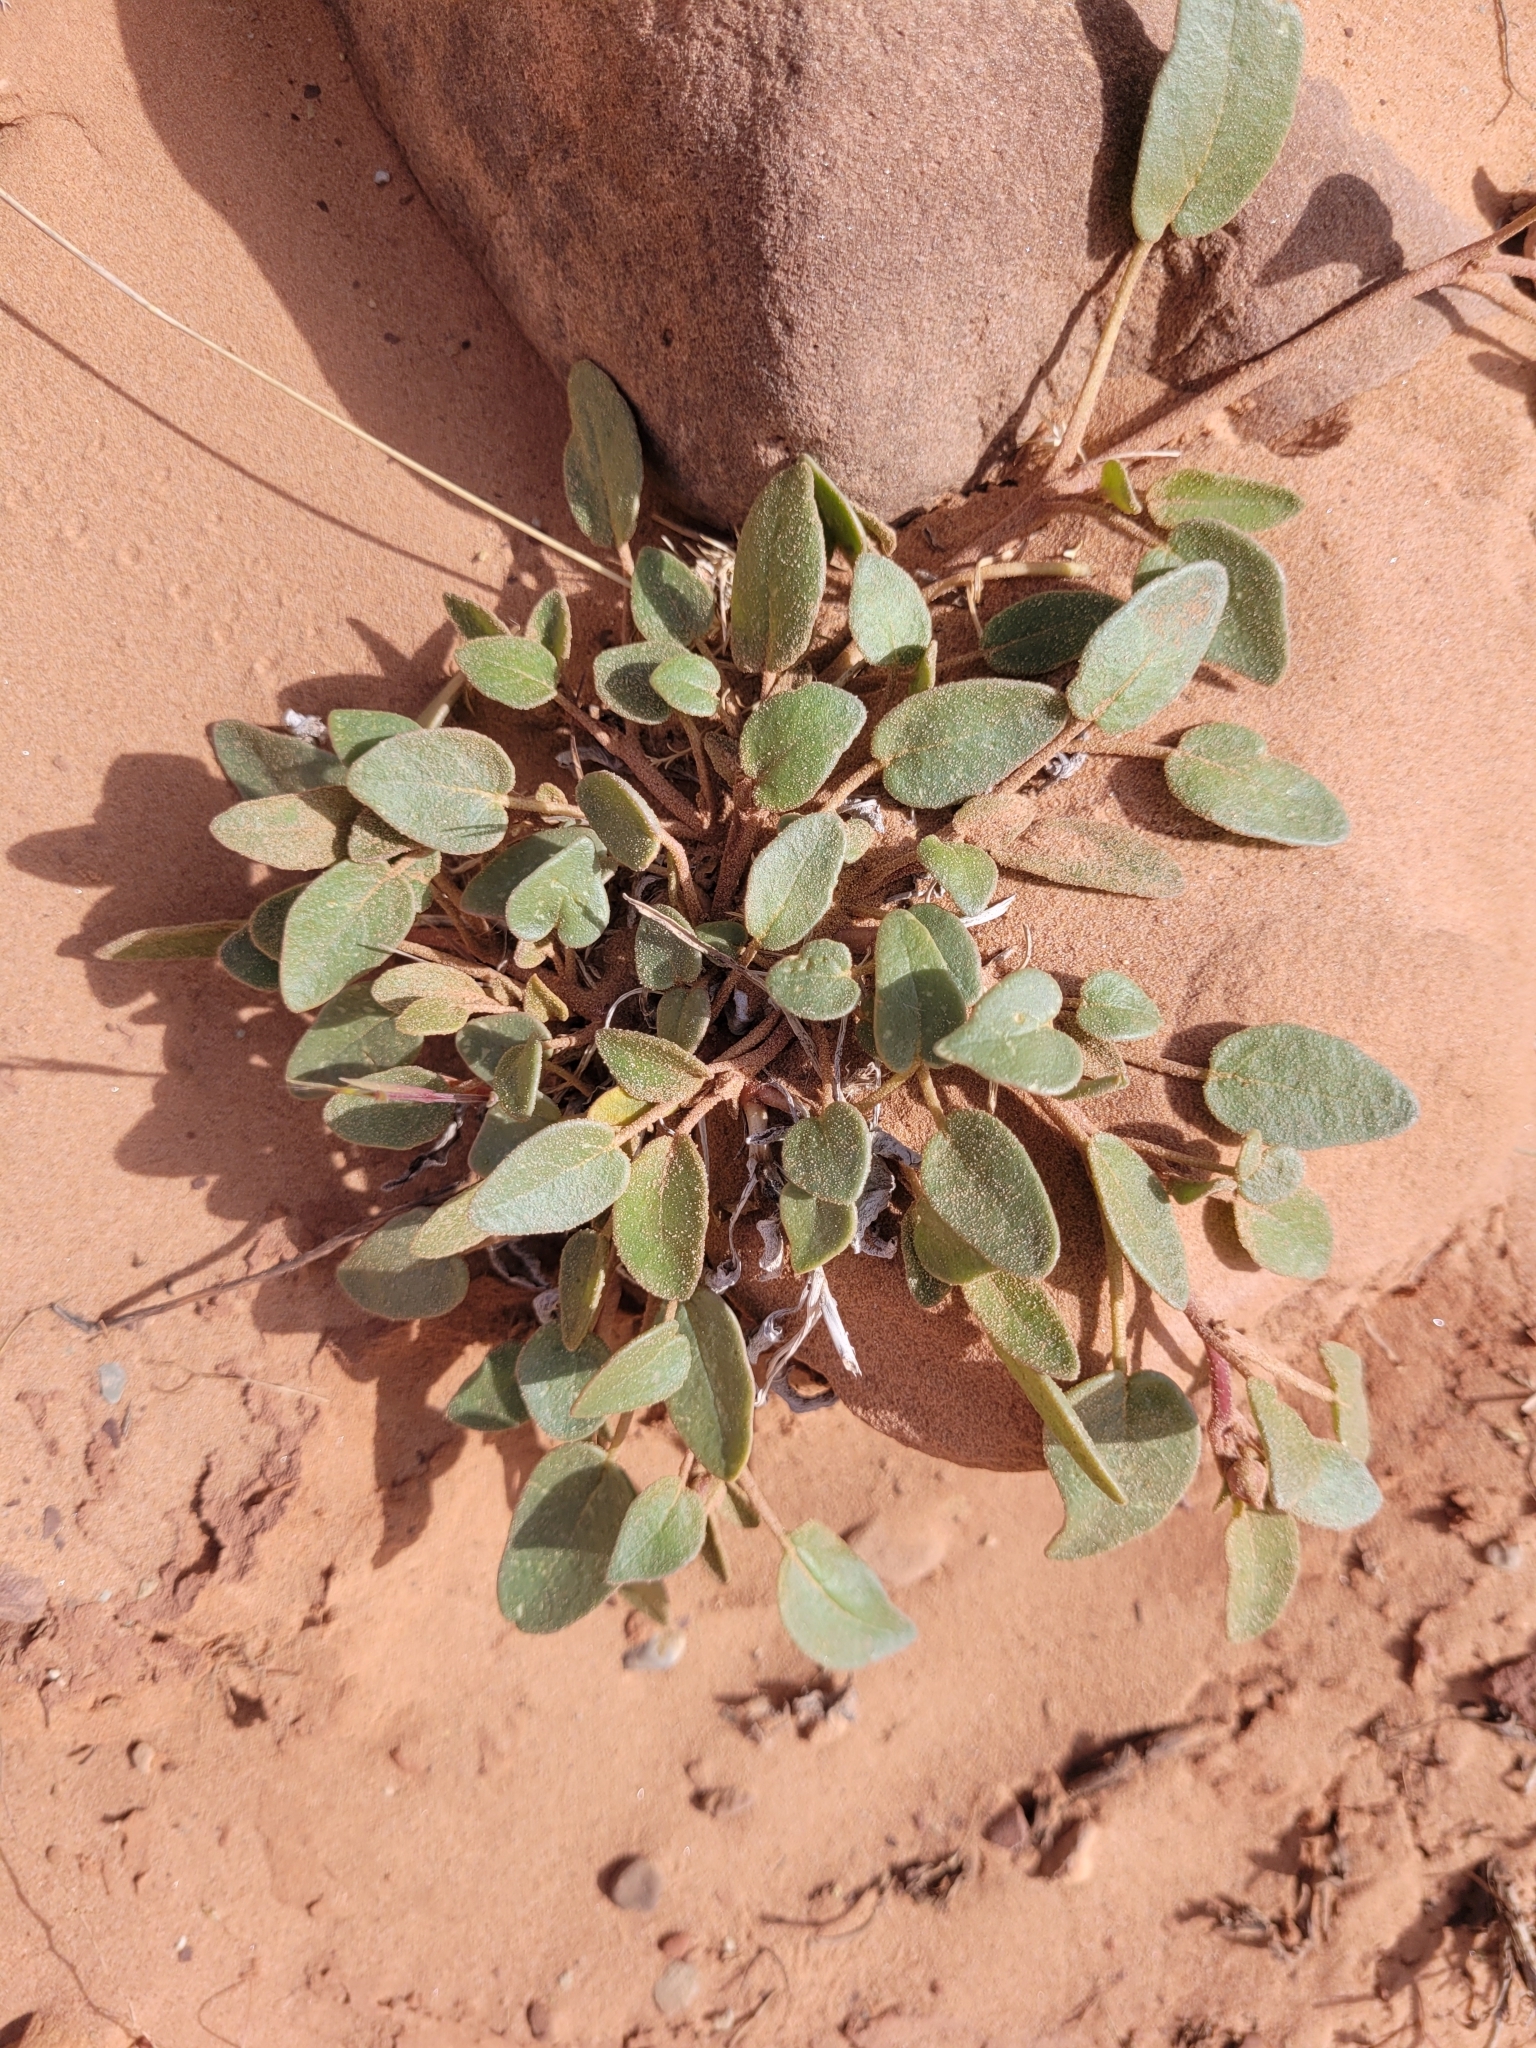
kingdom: Plantae
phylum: Tracheophyta
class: Magnoliopsida
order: Caryophyllales
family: Nyctaginaceae
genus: Abronia
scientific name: Abronia elliptica
